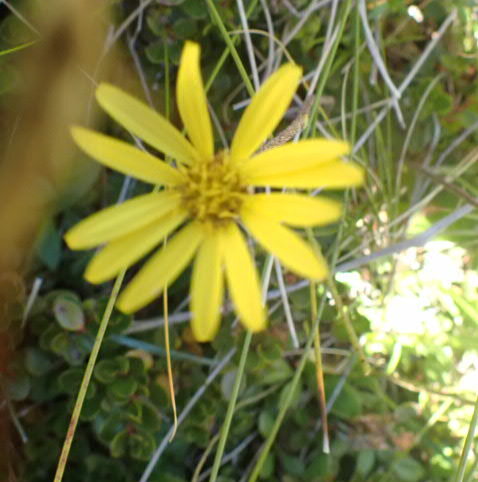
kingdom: Plantae
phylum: Tracheophyta
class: Magnoliopsida
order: Asterales
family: Asteraceae
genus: Brachyglottis
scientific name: Brachyglottis bellidioides
